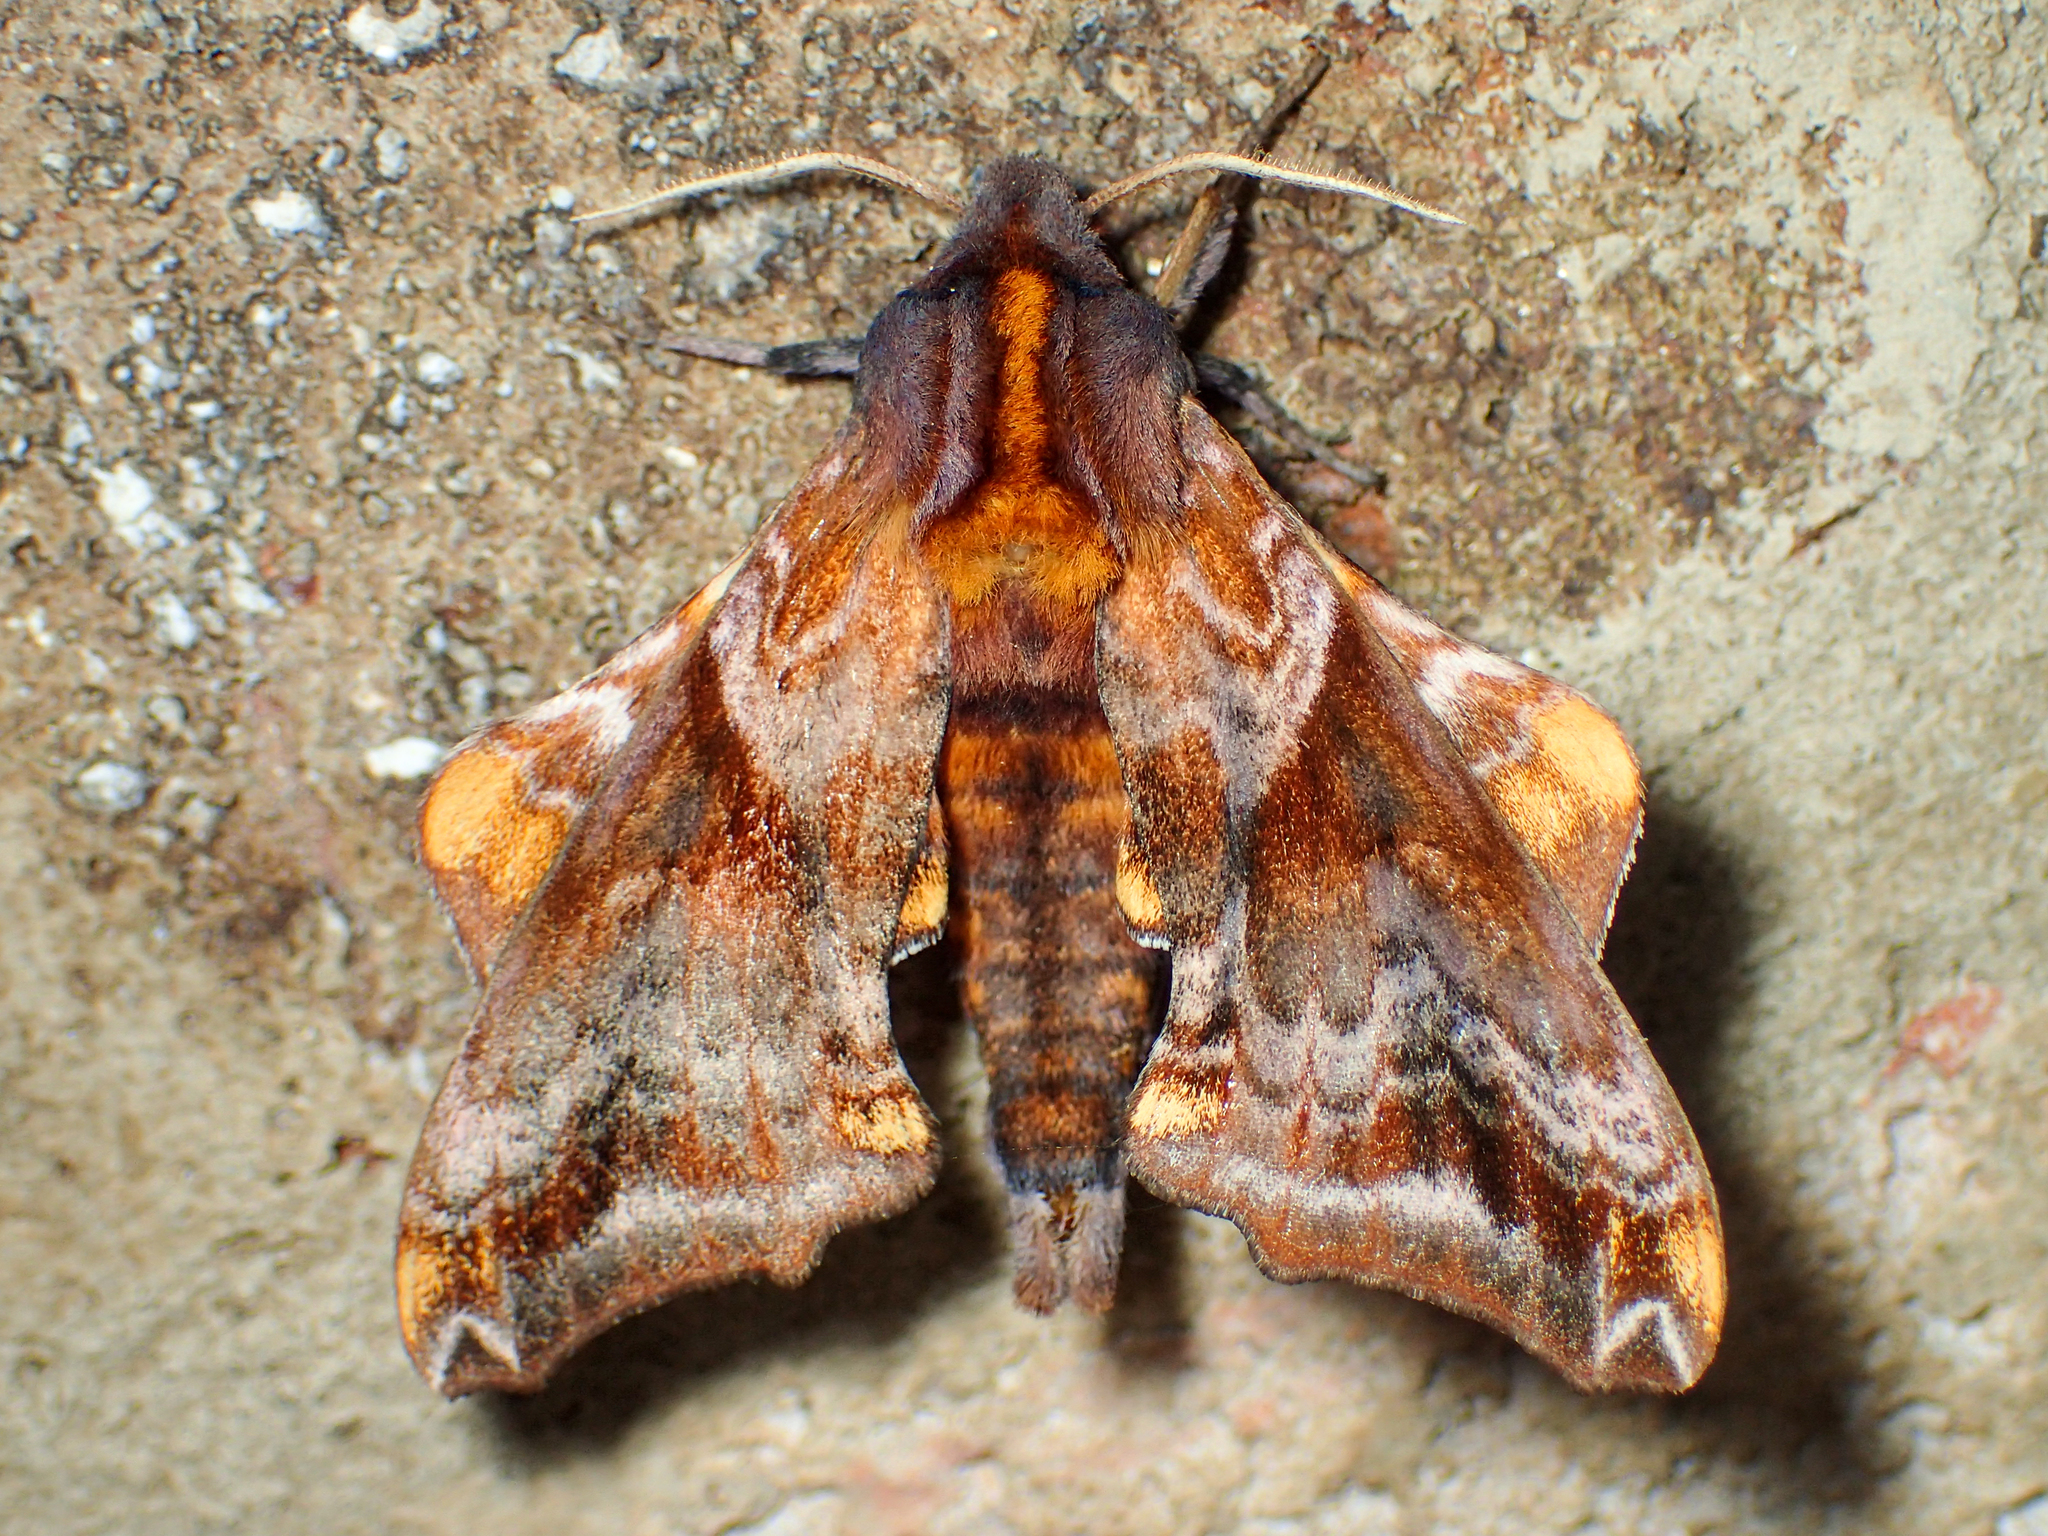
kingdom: Animalia
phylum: Arthropoda
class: Insecta
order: Lepidoptera
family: Sphingidae
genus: Paonias
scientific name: Paonias myops
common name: Small-eyed sphinx
